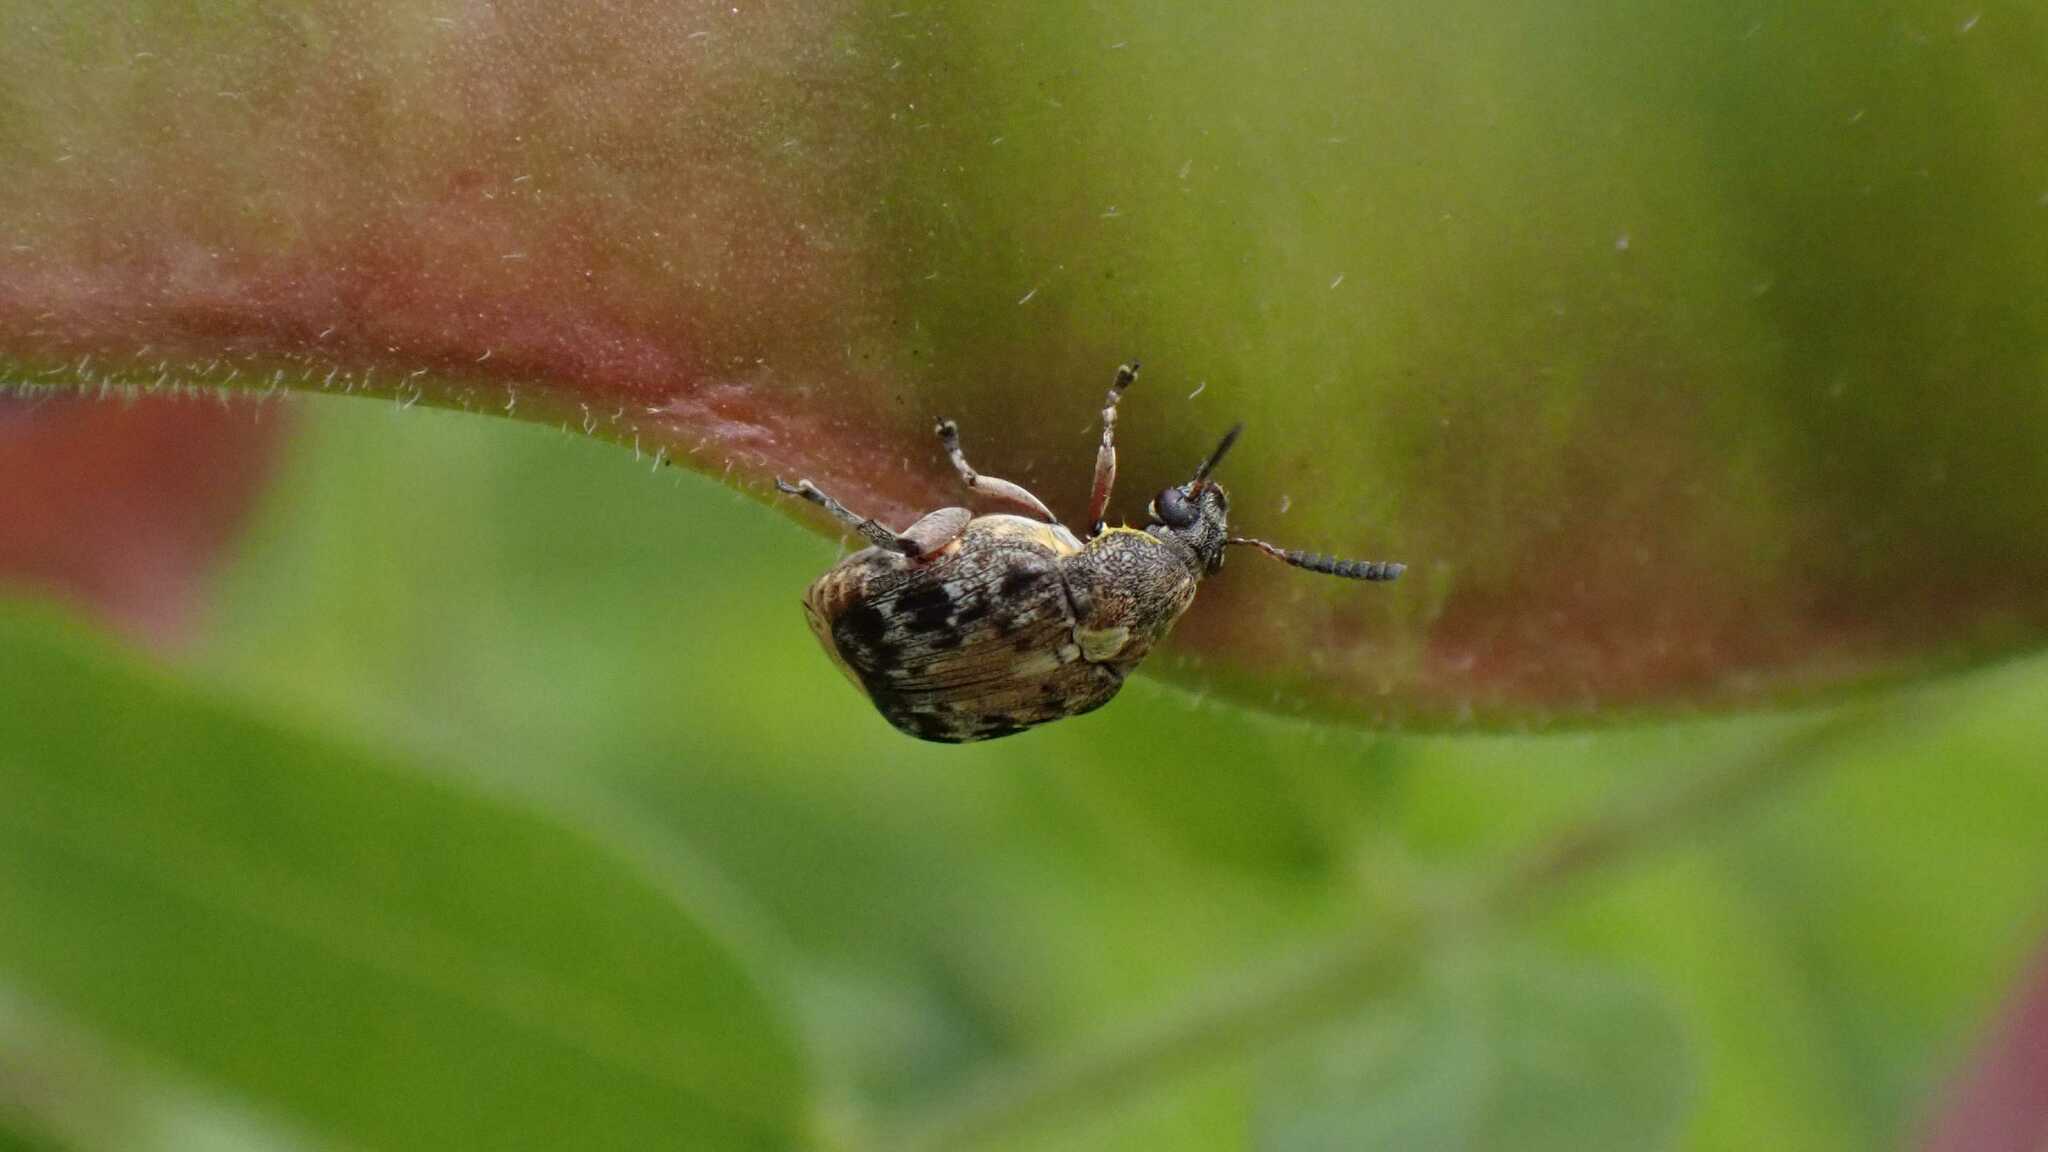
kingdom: Animalia
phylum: Arthropoda
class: Insecta
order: Coleoptera
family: Chrysomelidae
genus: Megabruchidius
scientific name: Megabruchidius dorsalis
